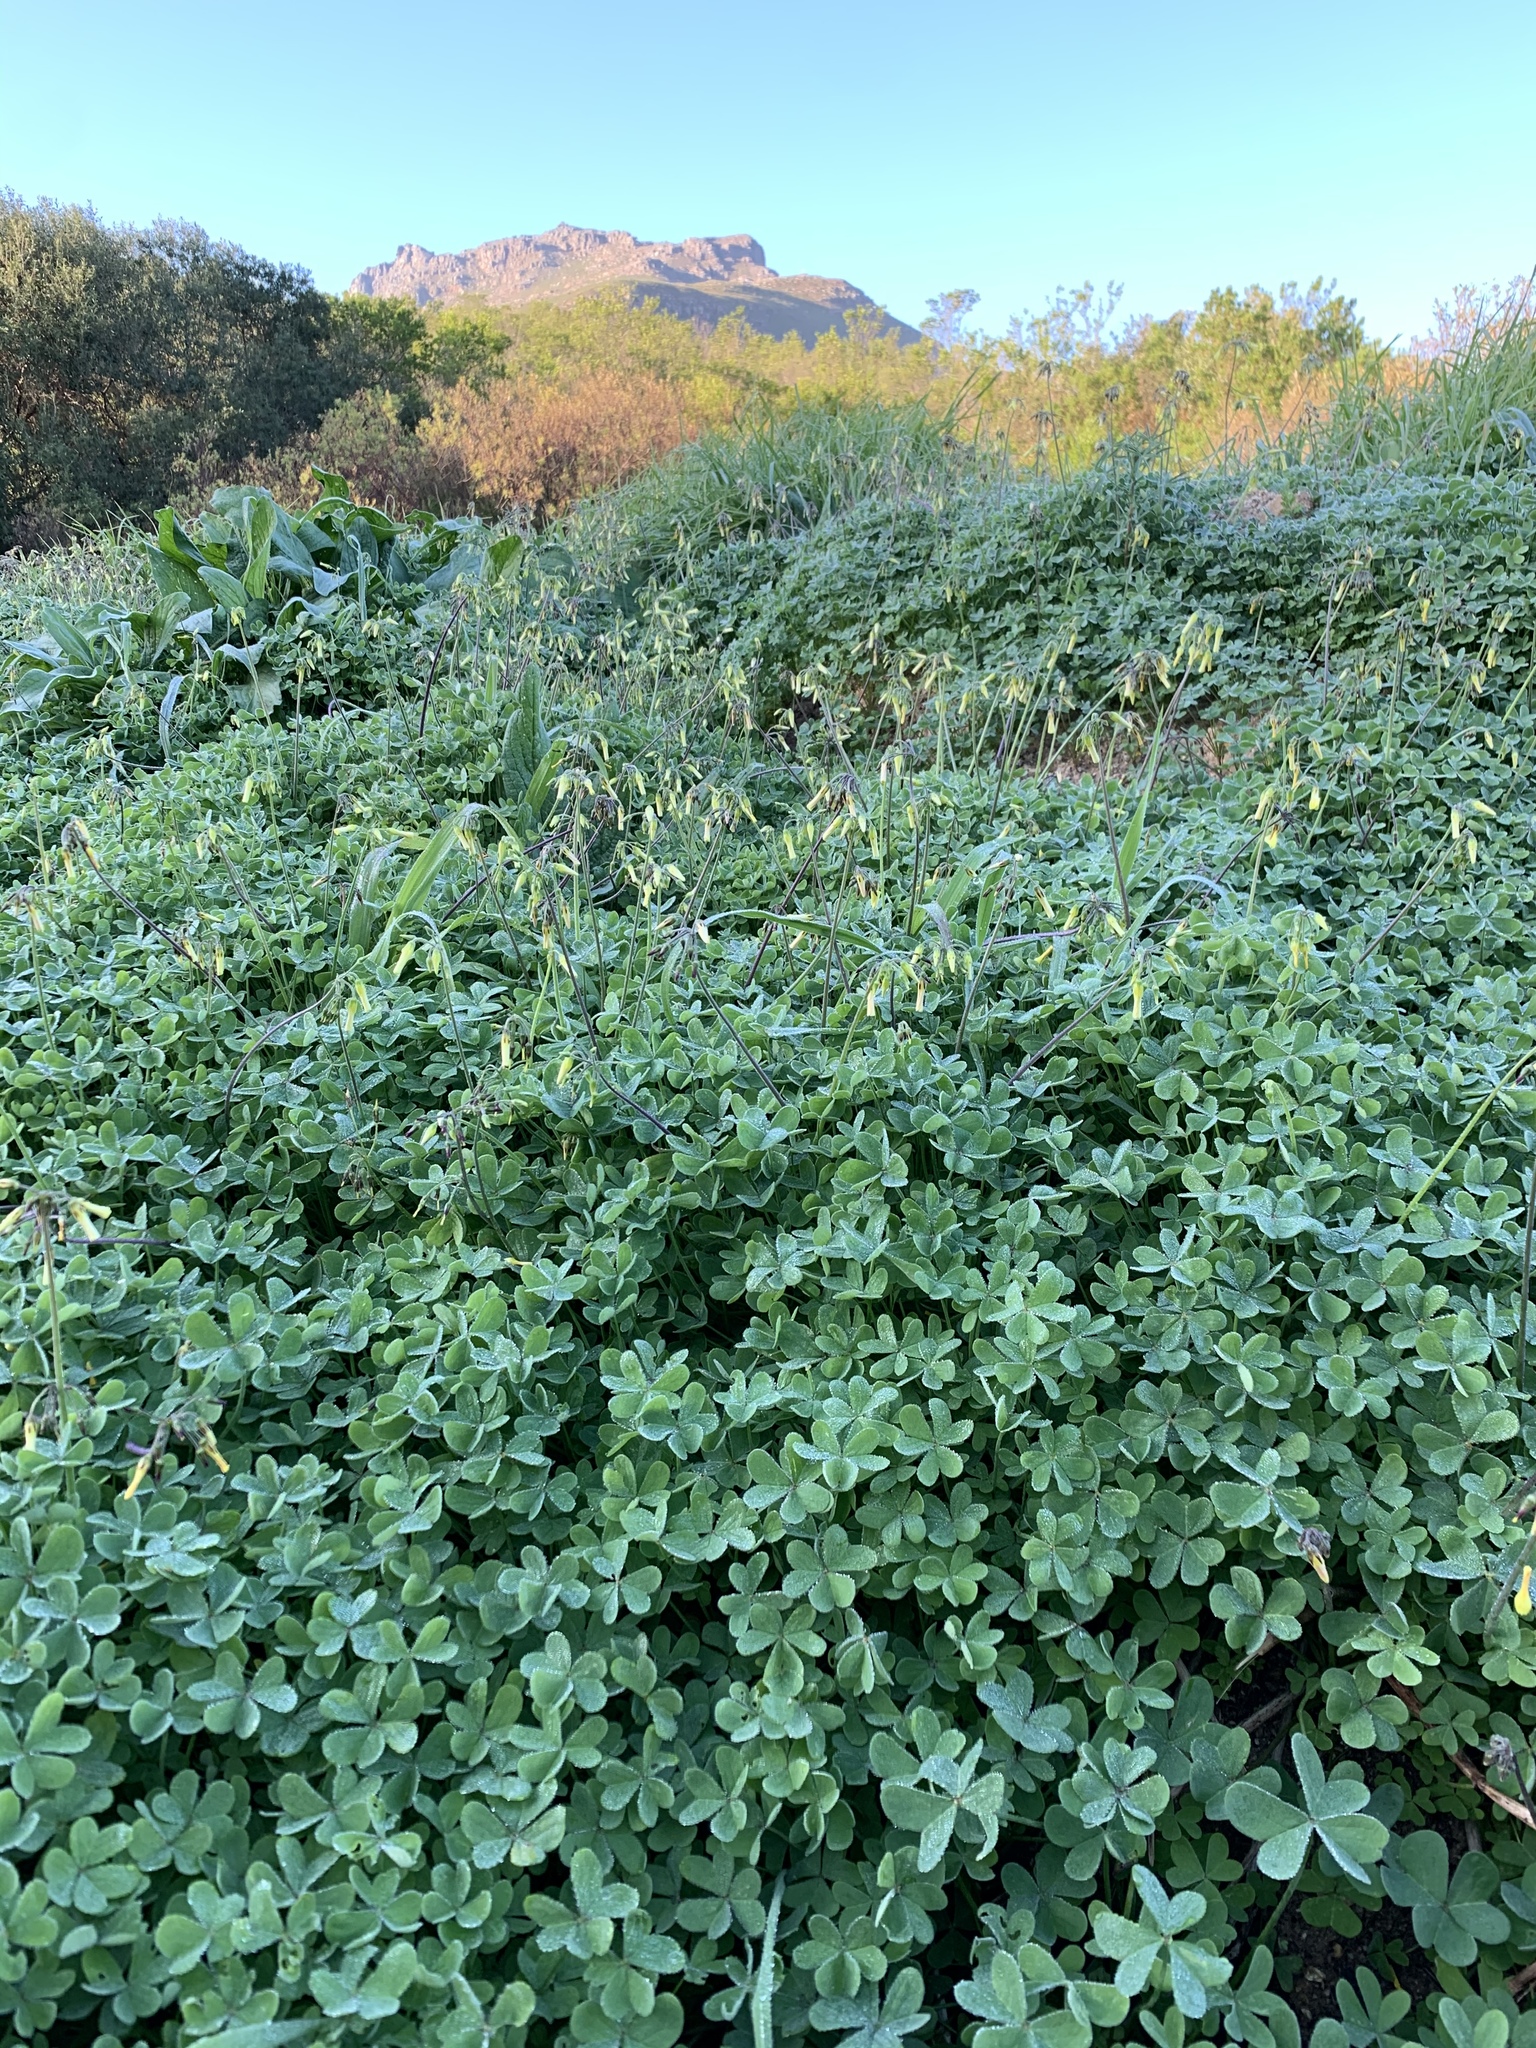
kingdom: Plantae
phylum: Tracheophyta
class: Magnoliopsida
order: Oxalidales
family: Oxalidaceae
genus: Oxalis
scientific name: Oxalis pes-caprae
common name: Bermuda-buttercup
